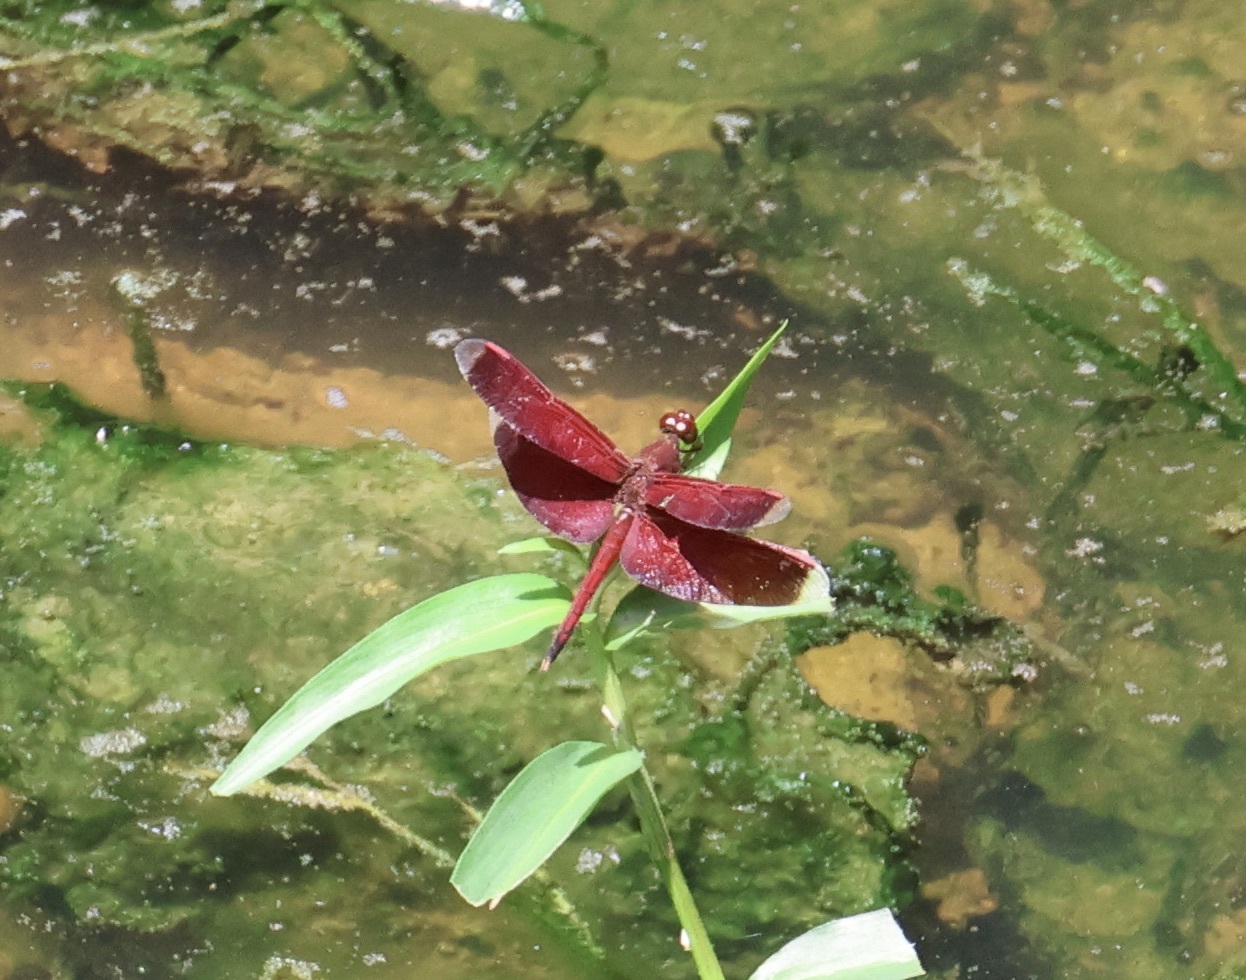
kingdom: Animalia
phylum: Arthropoda
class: Insecta
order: Odonata
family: Libellulidae
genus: Neurothemis
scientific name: Neurothemis terminata
